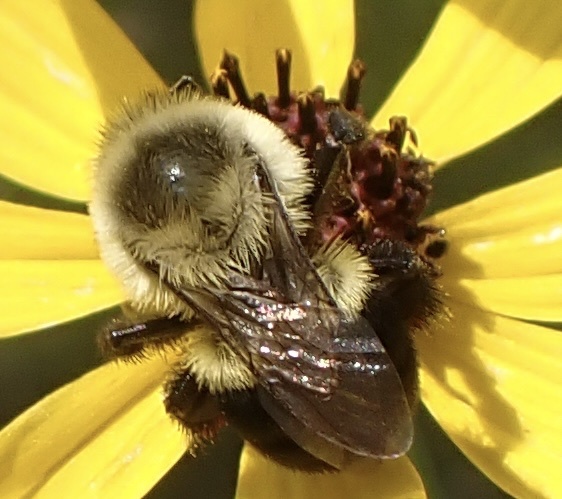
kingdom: Animalia
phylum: Arthropoda
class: Insecta
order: Hymenoptera
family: Apidae
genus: Bombus
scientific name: Bombus impatiens
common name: Common eastern bumble bee
